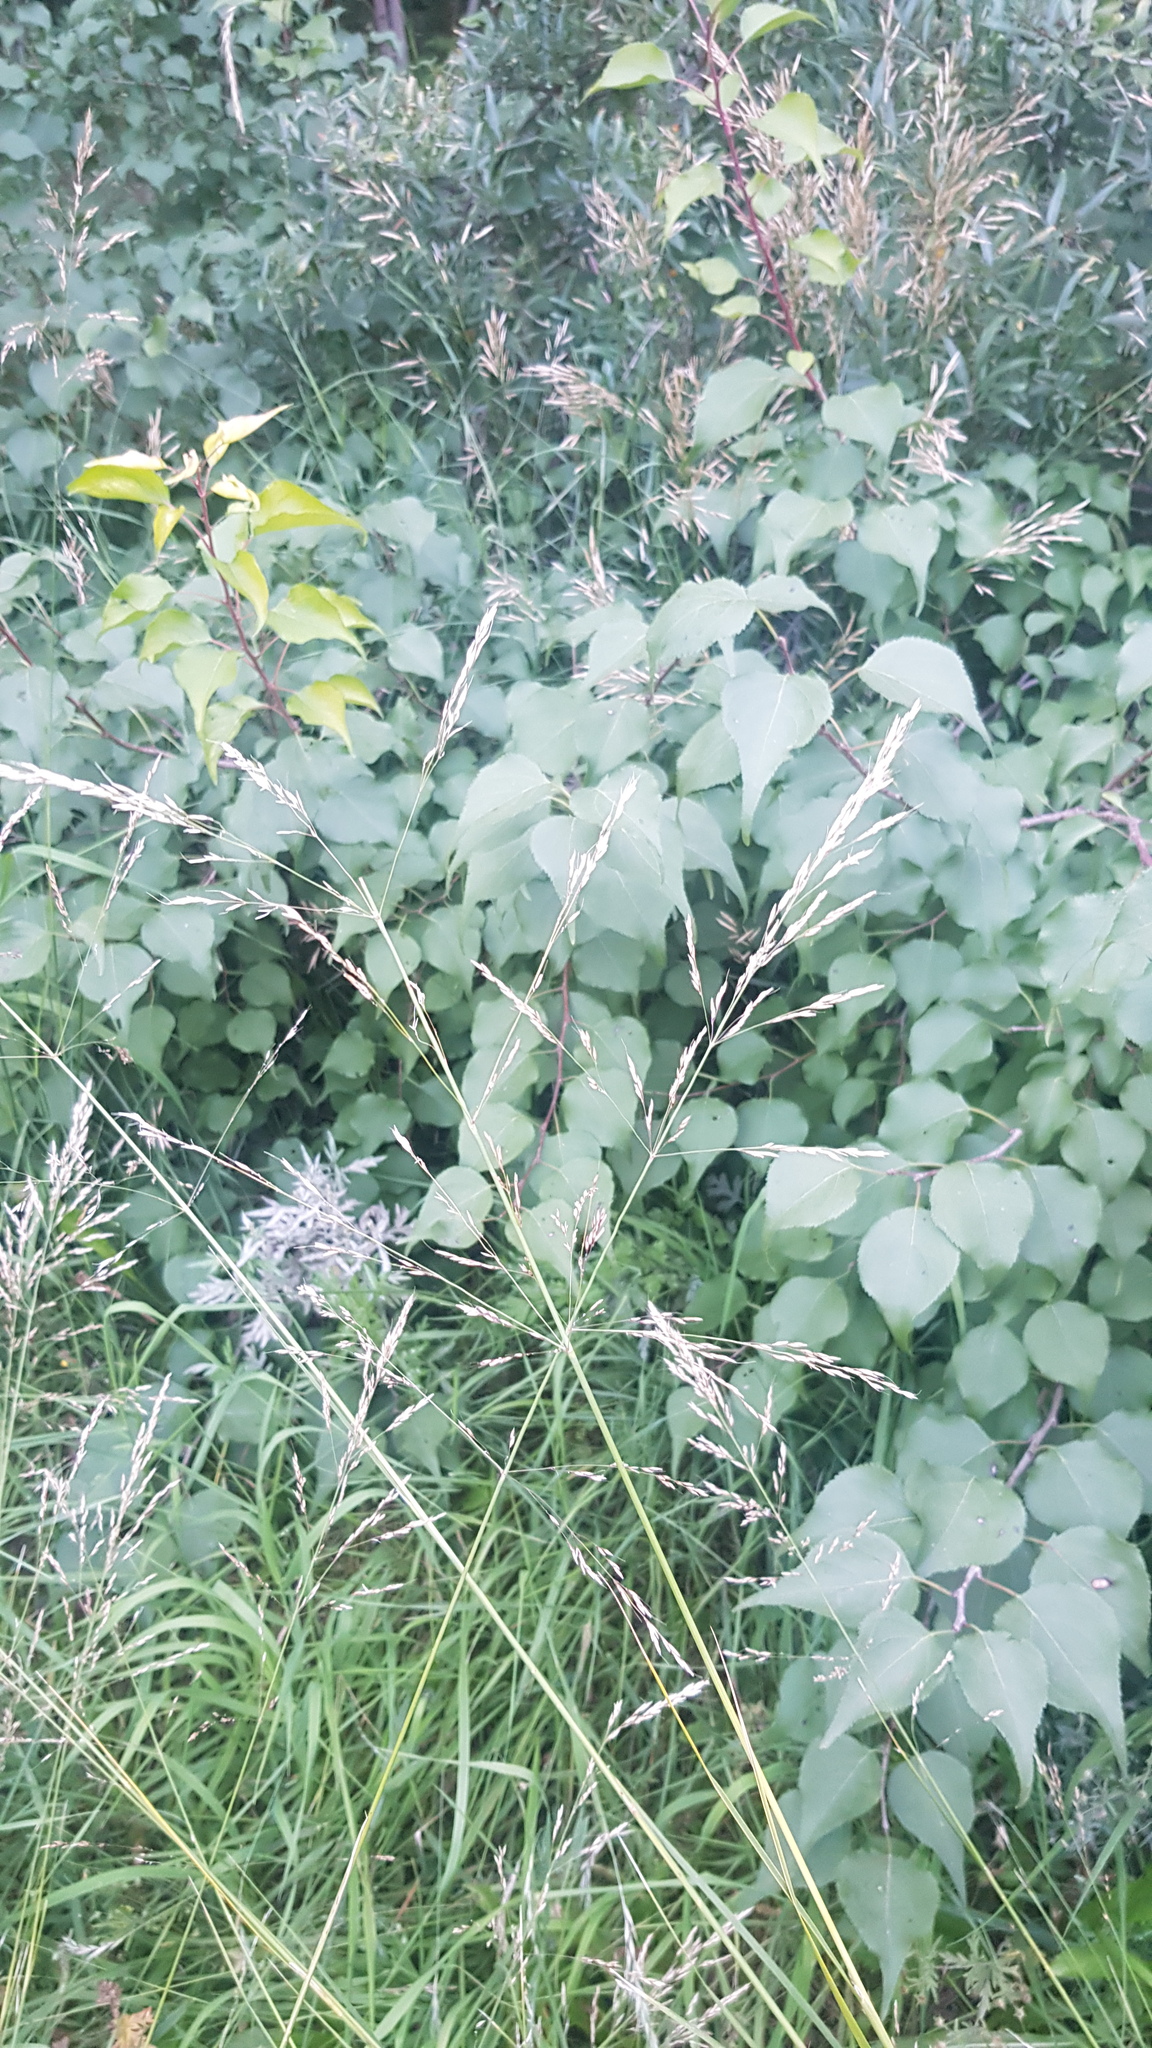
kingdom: Plantae
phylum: Tracheophyta
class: Liliopsida
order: Poales
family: Poaceae
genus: Poa
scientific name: Poa trivialis
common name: Rough bluegrass
